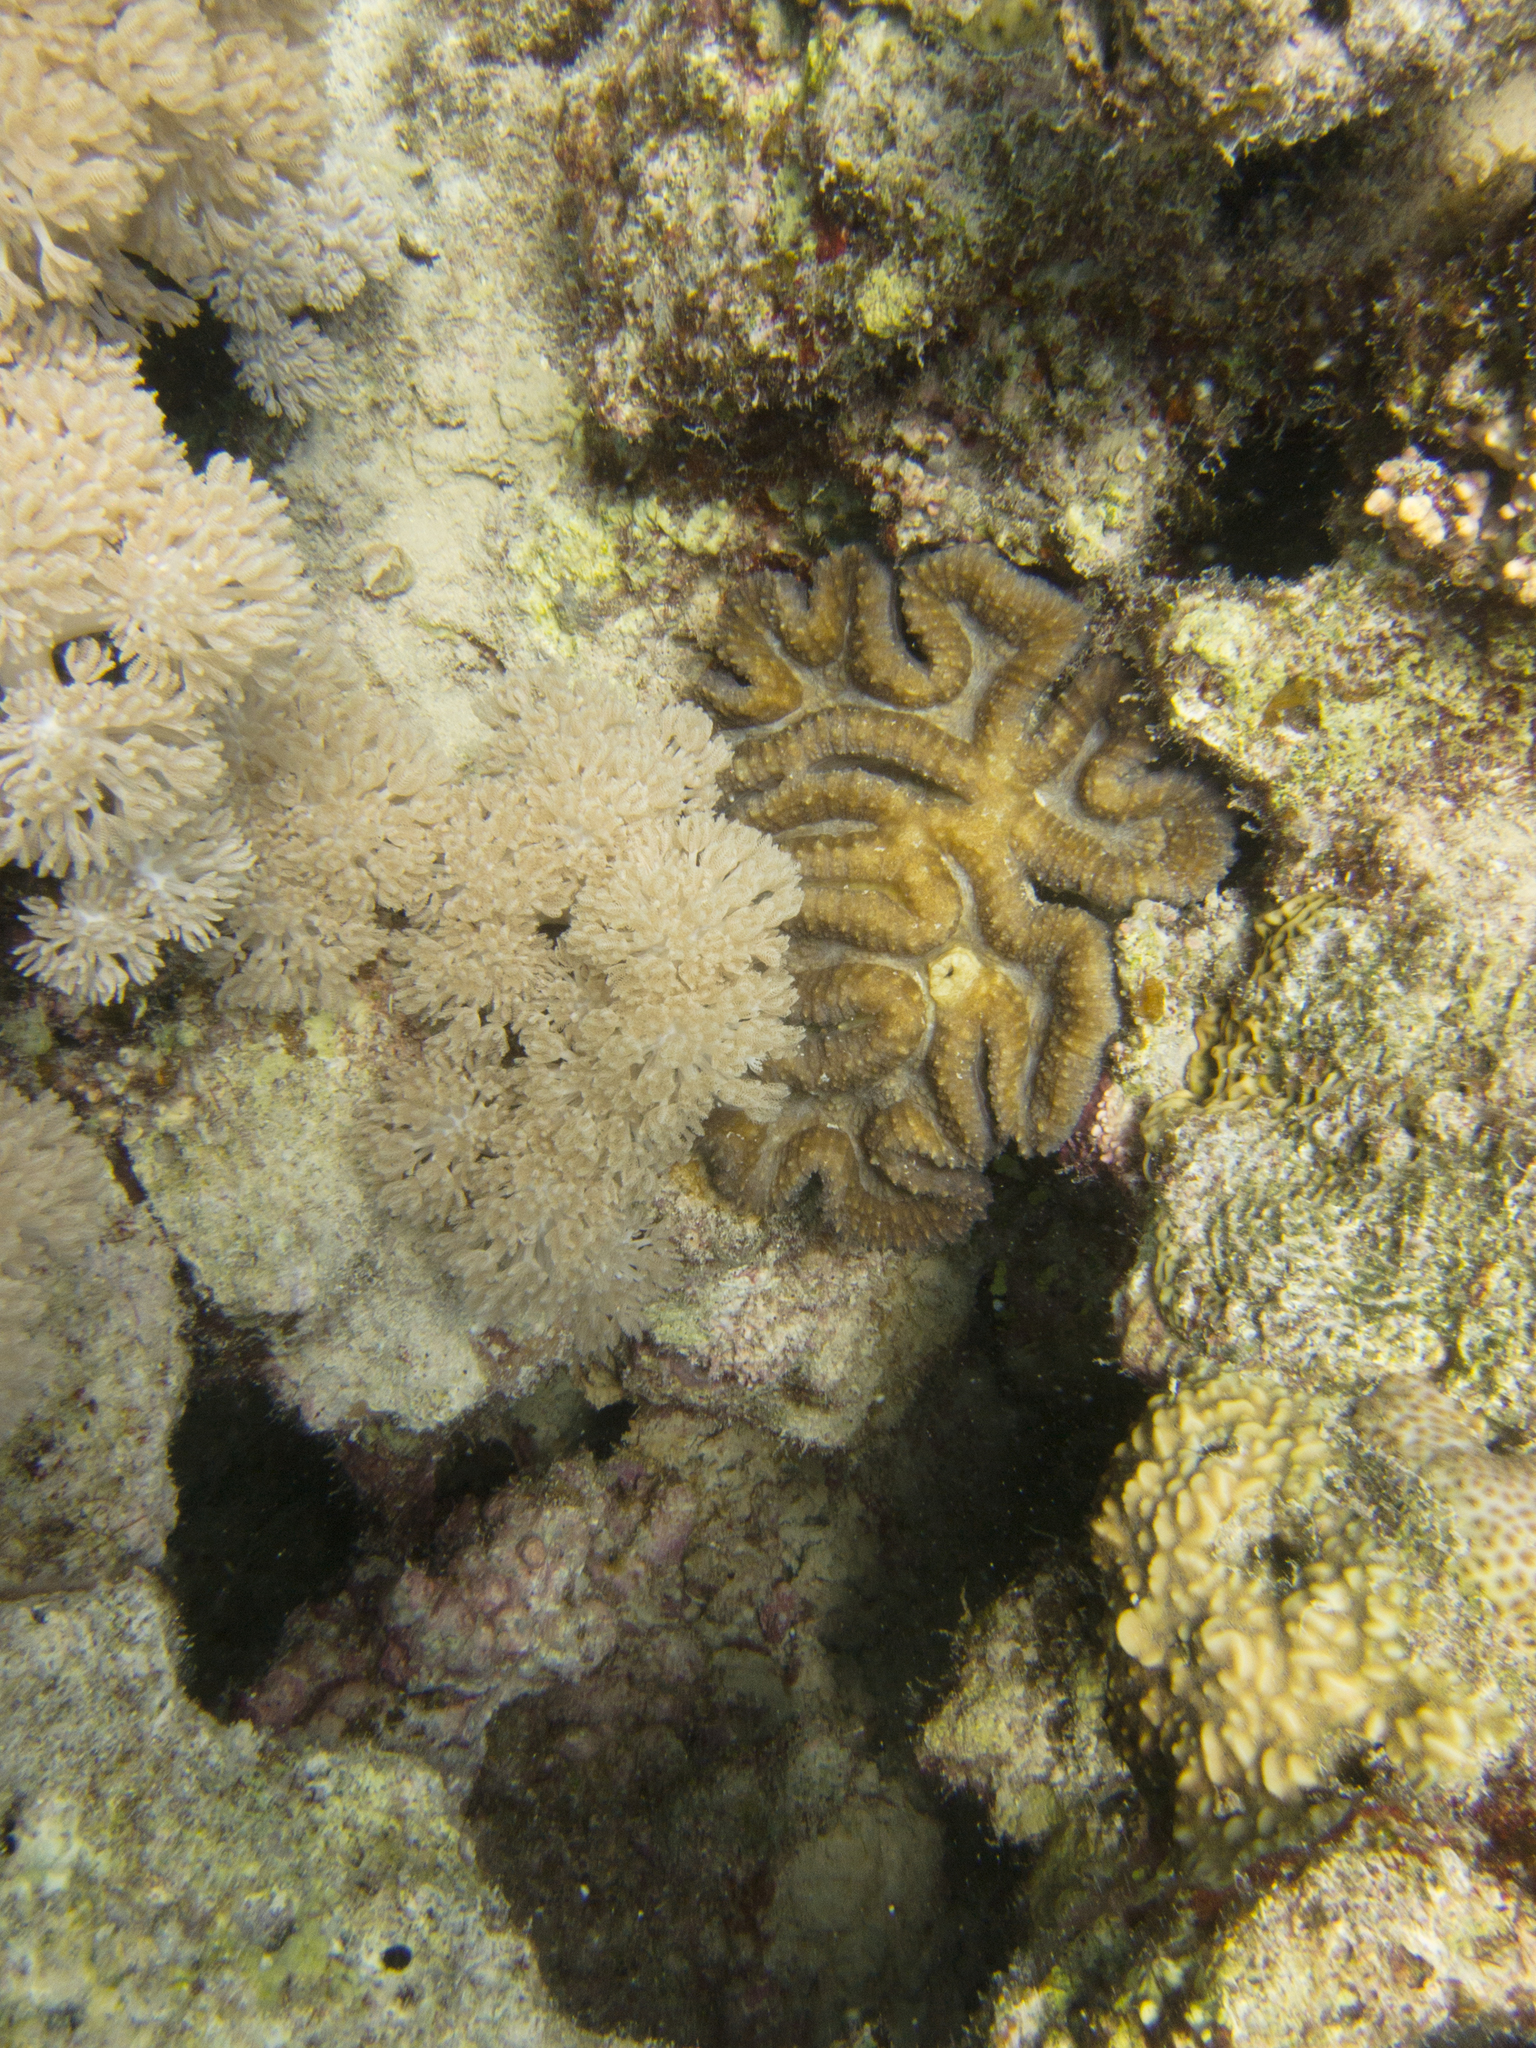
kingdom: Animalia
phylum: Cnidaria
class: Anthozoa
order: Scleractinia
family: Agariciidae
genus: Pavona
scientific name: Pavona varians
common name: Leaf coral
